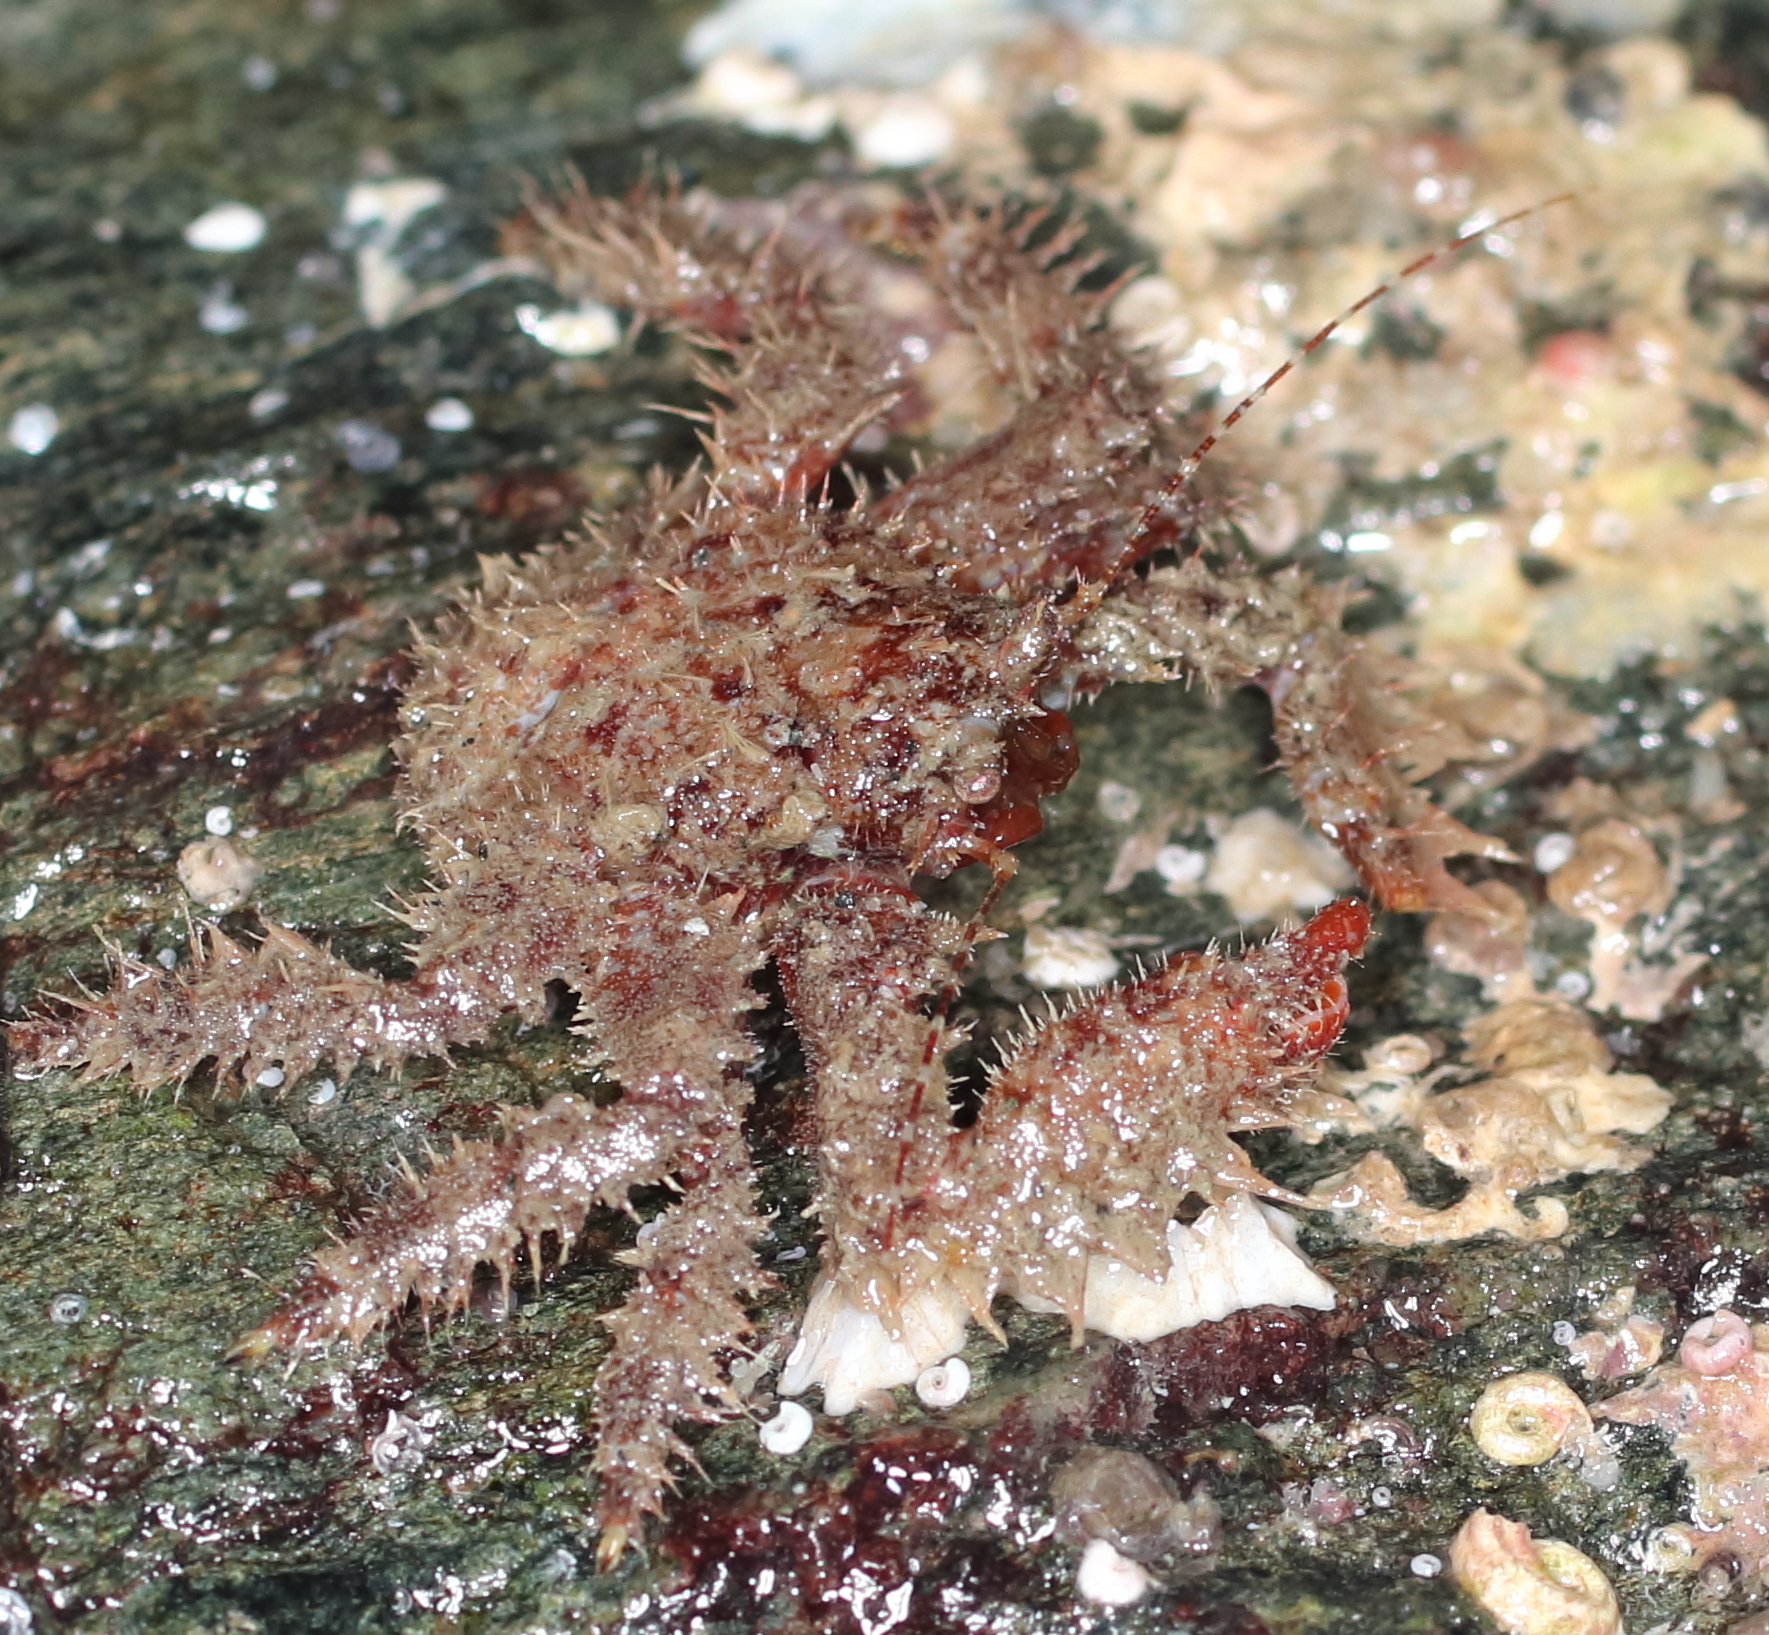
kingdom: Animalia
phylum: Arthropoda
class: Malacostraca
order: Decapoda
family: Hapalogastridae
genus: Hapalogaster
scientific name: Hapalogaster mertensii
